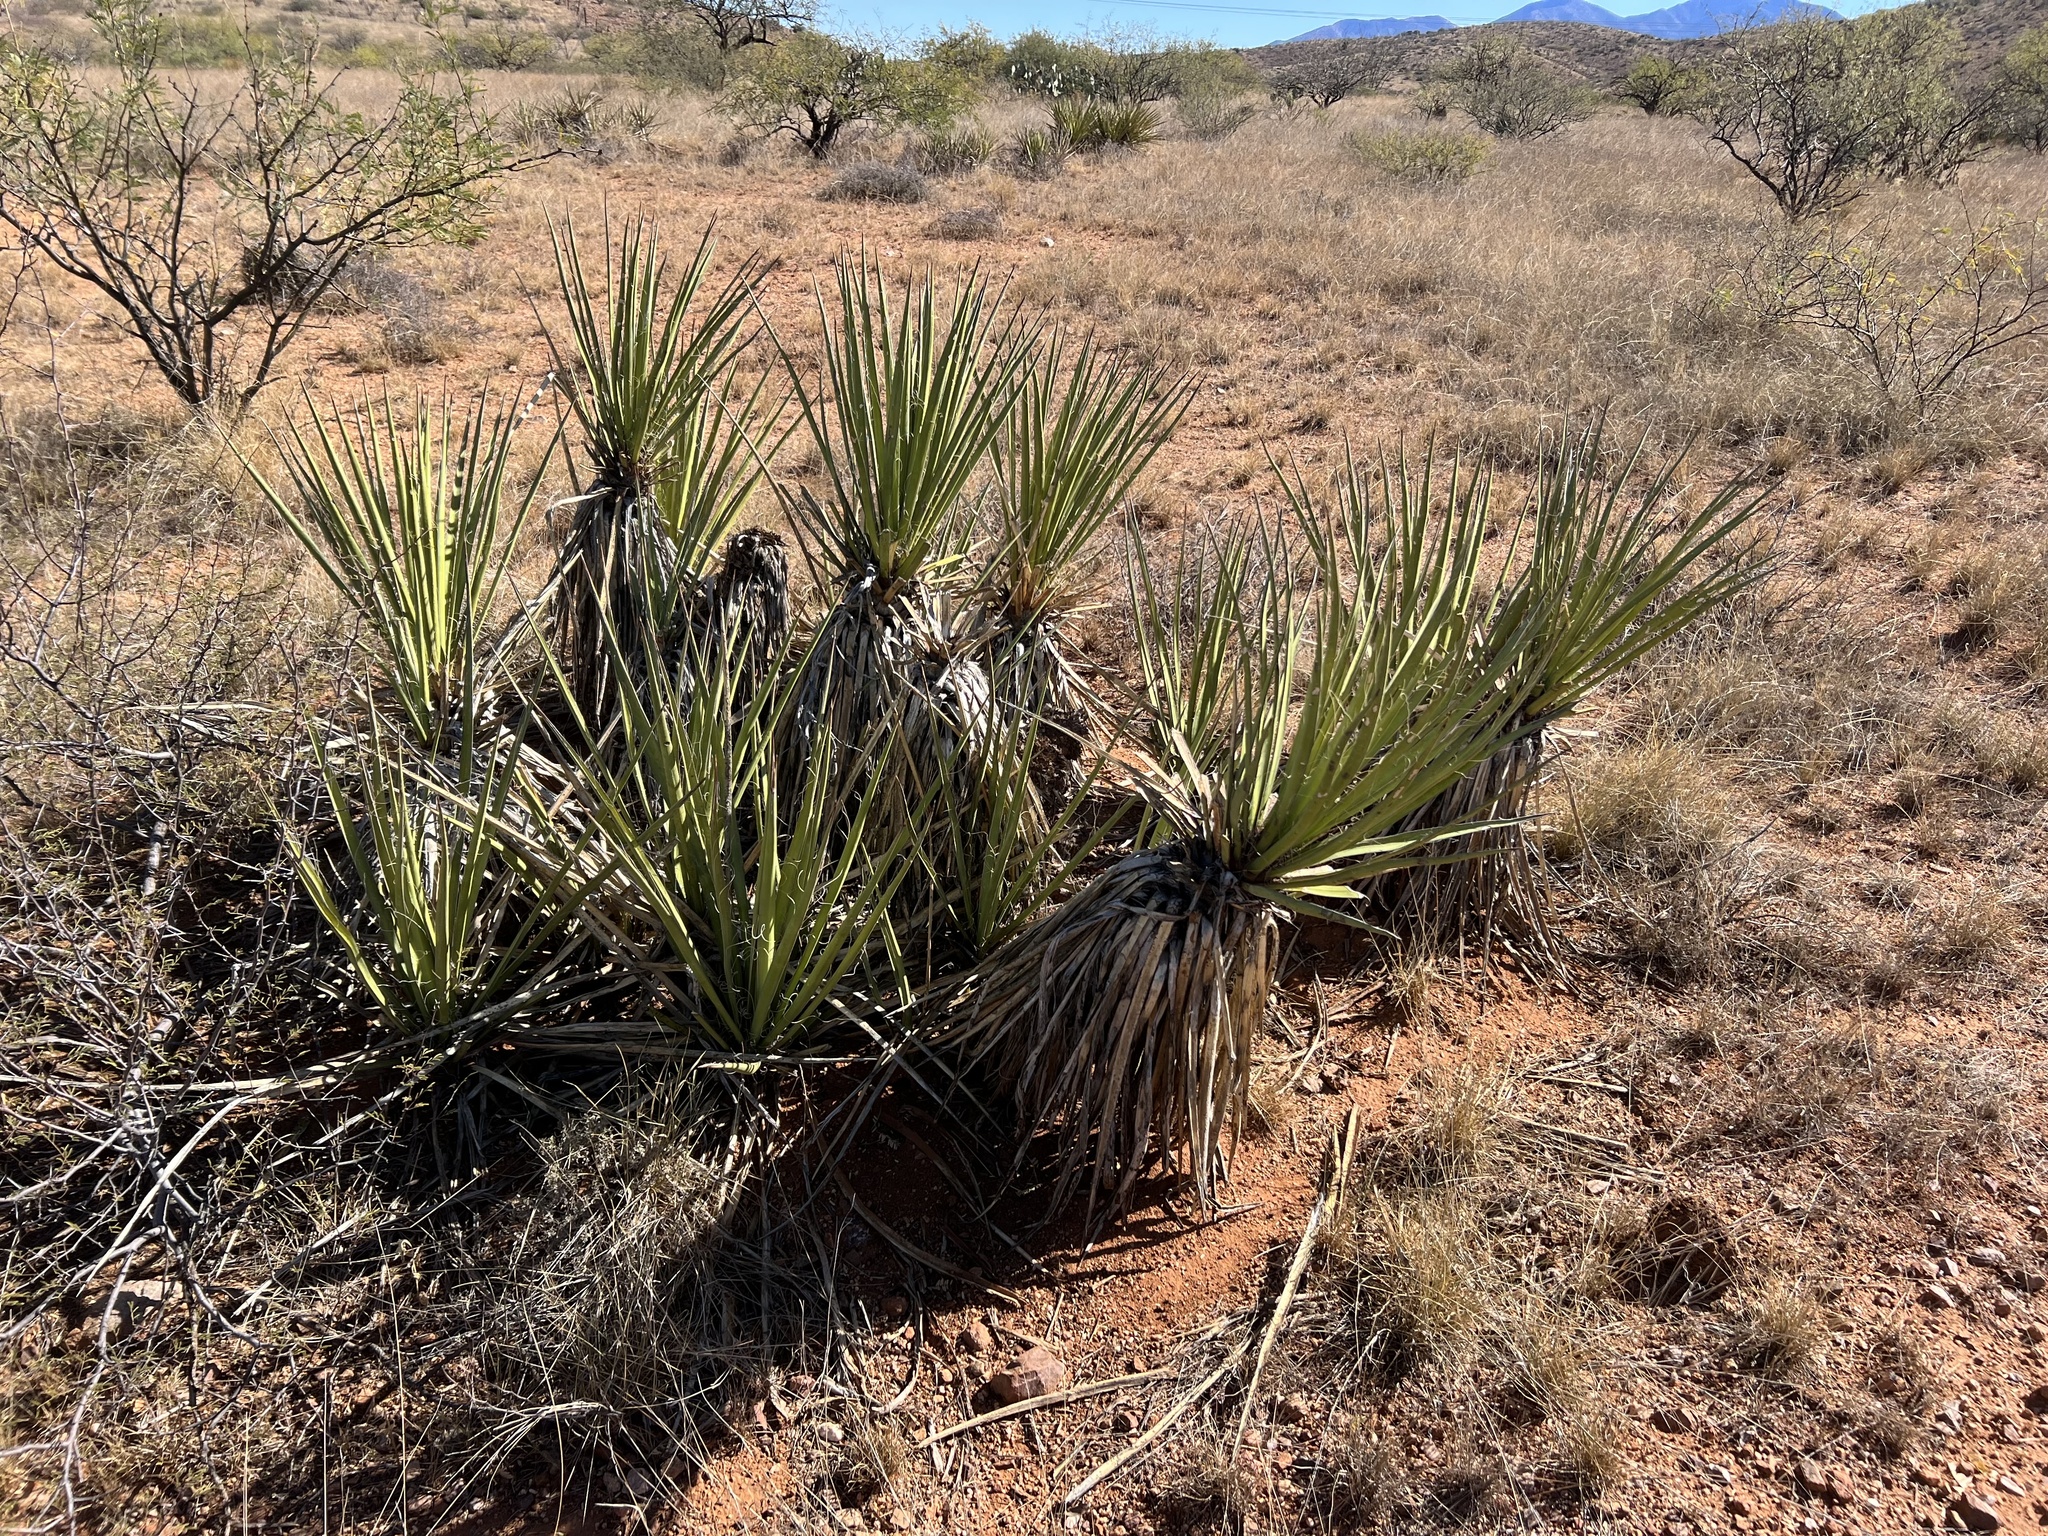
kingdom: Plantae
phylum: Tracheophyta
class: Liliopsida
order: Asparagales
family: Asparagaceae
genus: Yucca
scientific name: Yucca baccata
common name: Banana yucca
